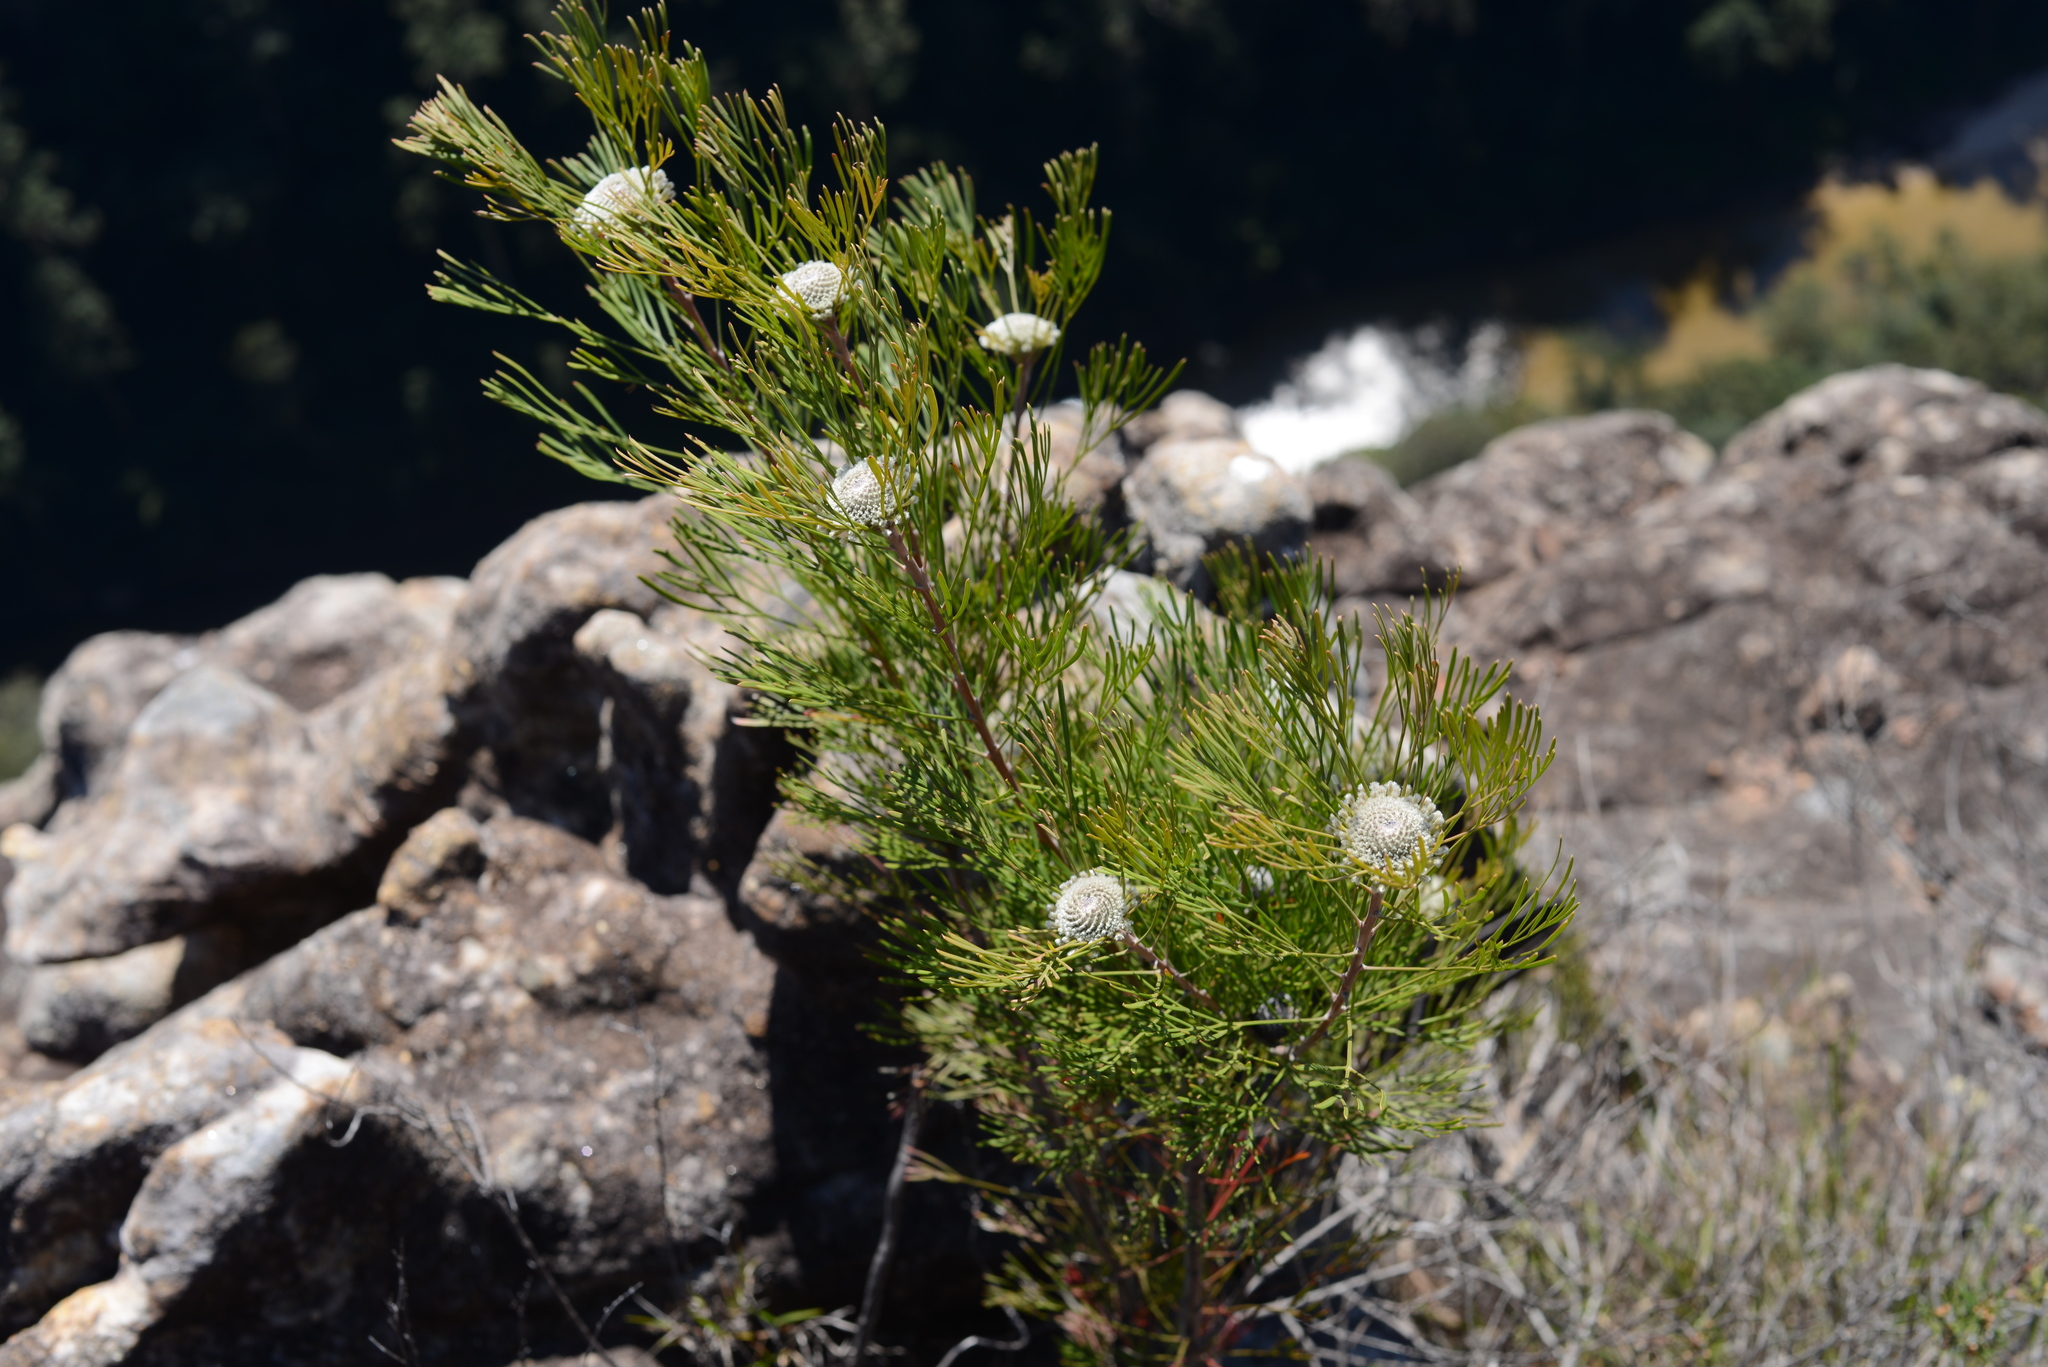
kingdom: Plantae
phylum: Tracheophyta
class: Magnoliopsida
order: Proteales
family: Proteaceae
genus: Isopogon
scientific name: Isopogon anethifolius
